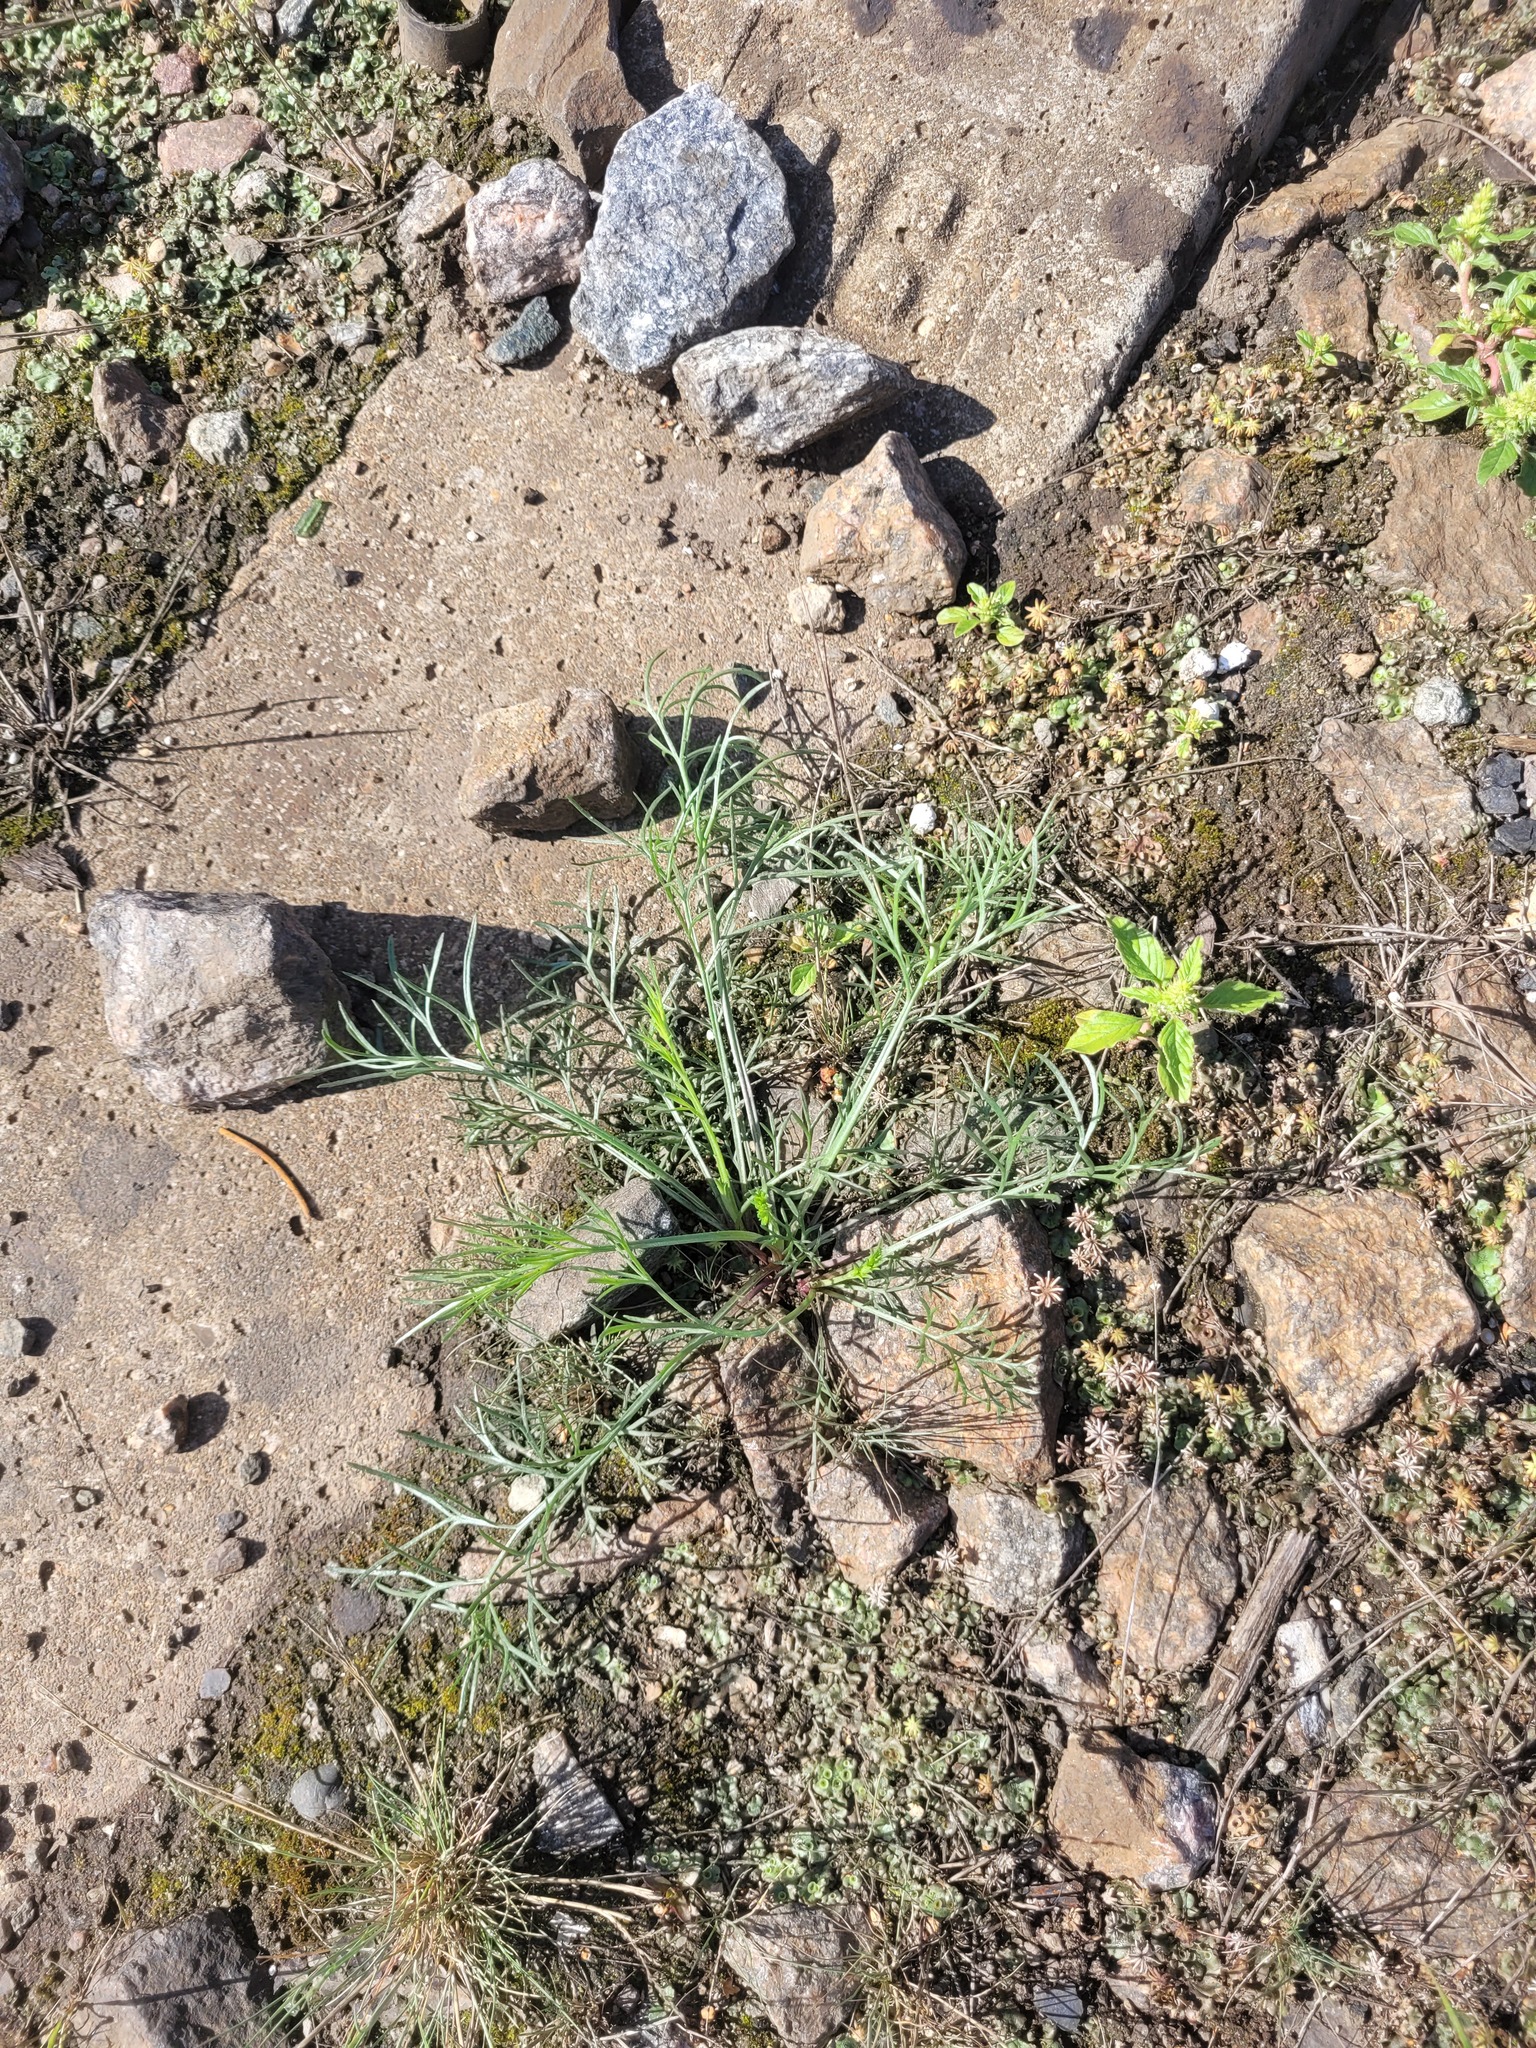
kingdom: Plantae
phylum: Tracheophyta
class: Magnoliopsida
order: Asterales
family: Asteraceae
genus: Artemisia
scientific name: Artemisia campestris
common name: Field wormwood
